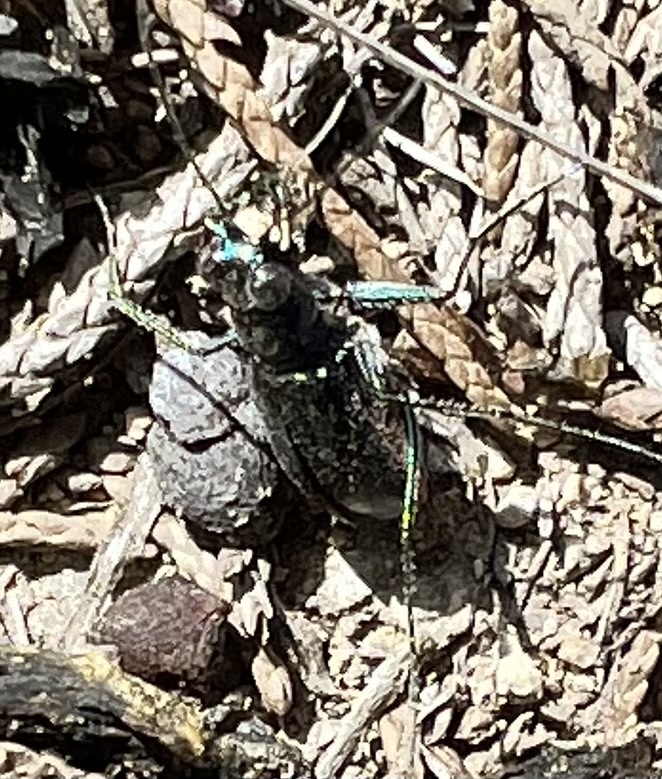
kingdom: Animalia
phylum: Arthropoda
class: Insecta
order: Coleoptera
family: Carabidae
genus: Cicindela
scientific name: Cicindela rufiventris
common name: Eastern red-bellied tiger beetle
